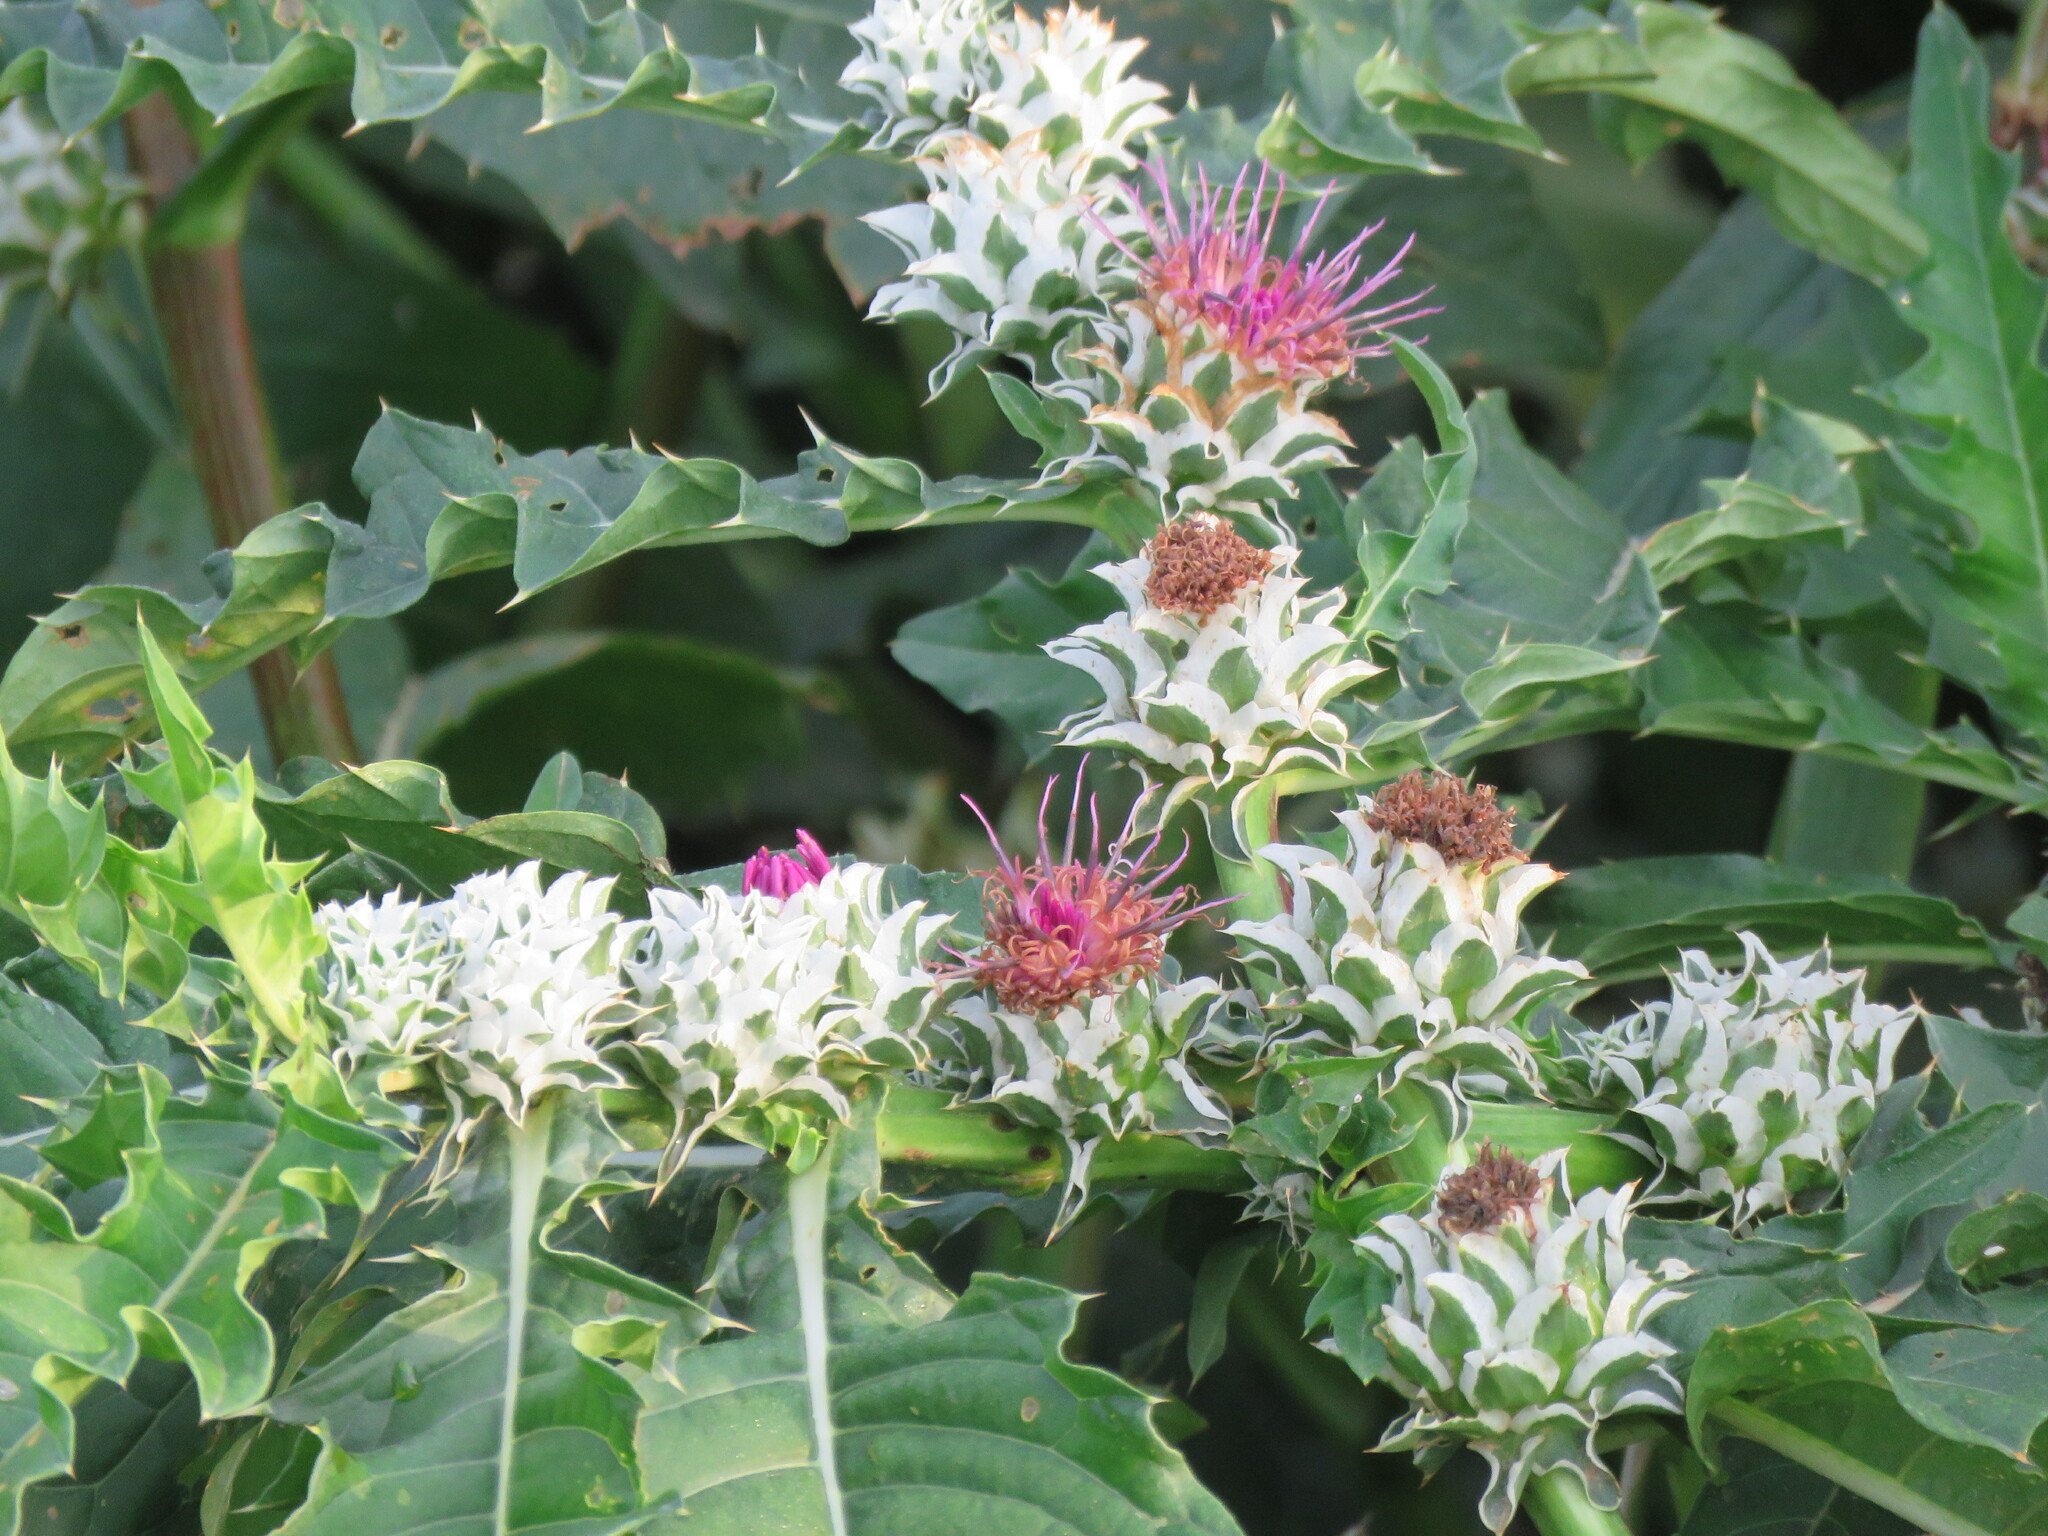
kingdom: Plantae
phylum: Tracheophyta
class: Magnoliopsida
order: Asterales
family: Asteraceae
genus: Pacourina
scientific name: Pacourina edulis
